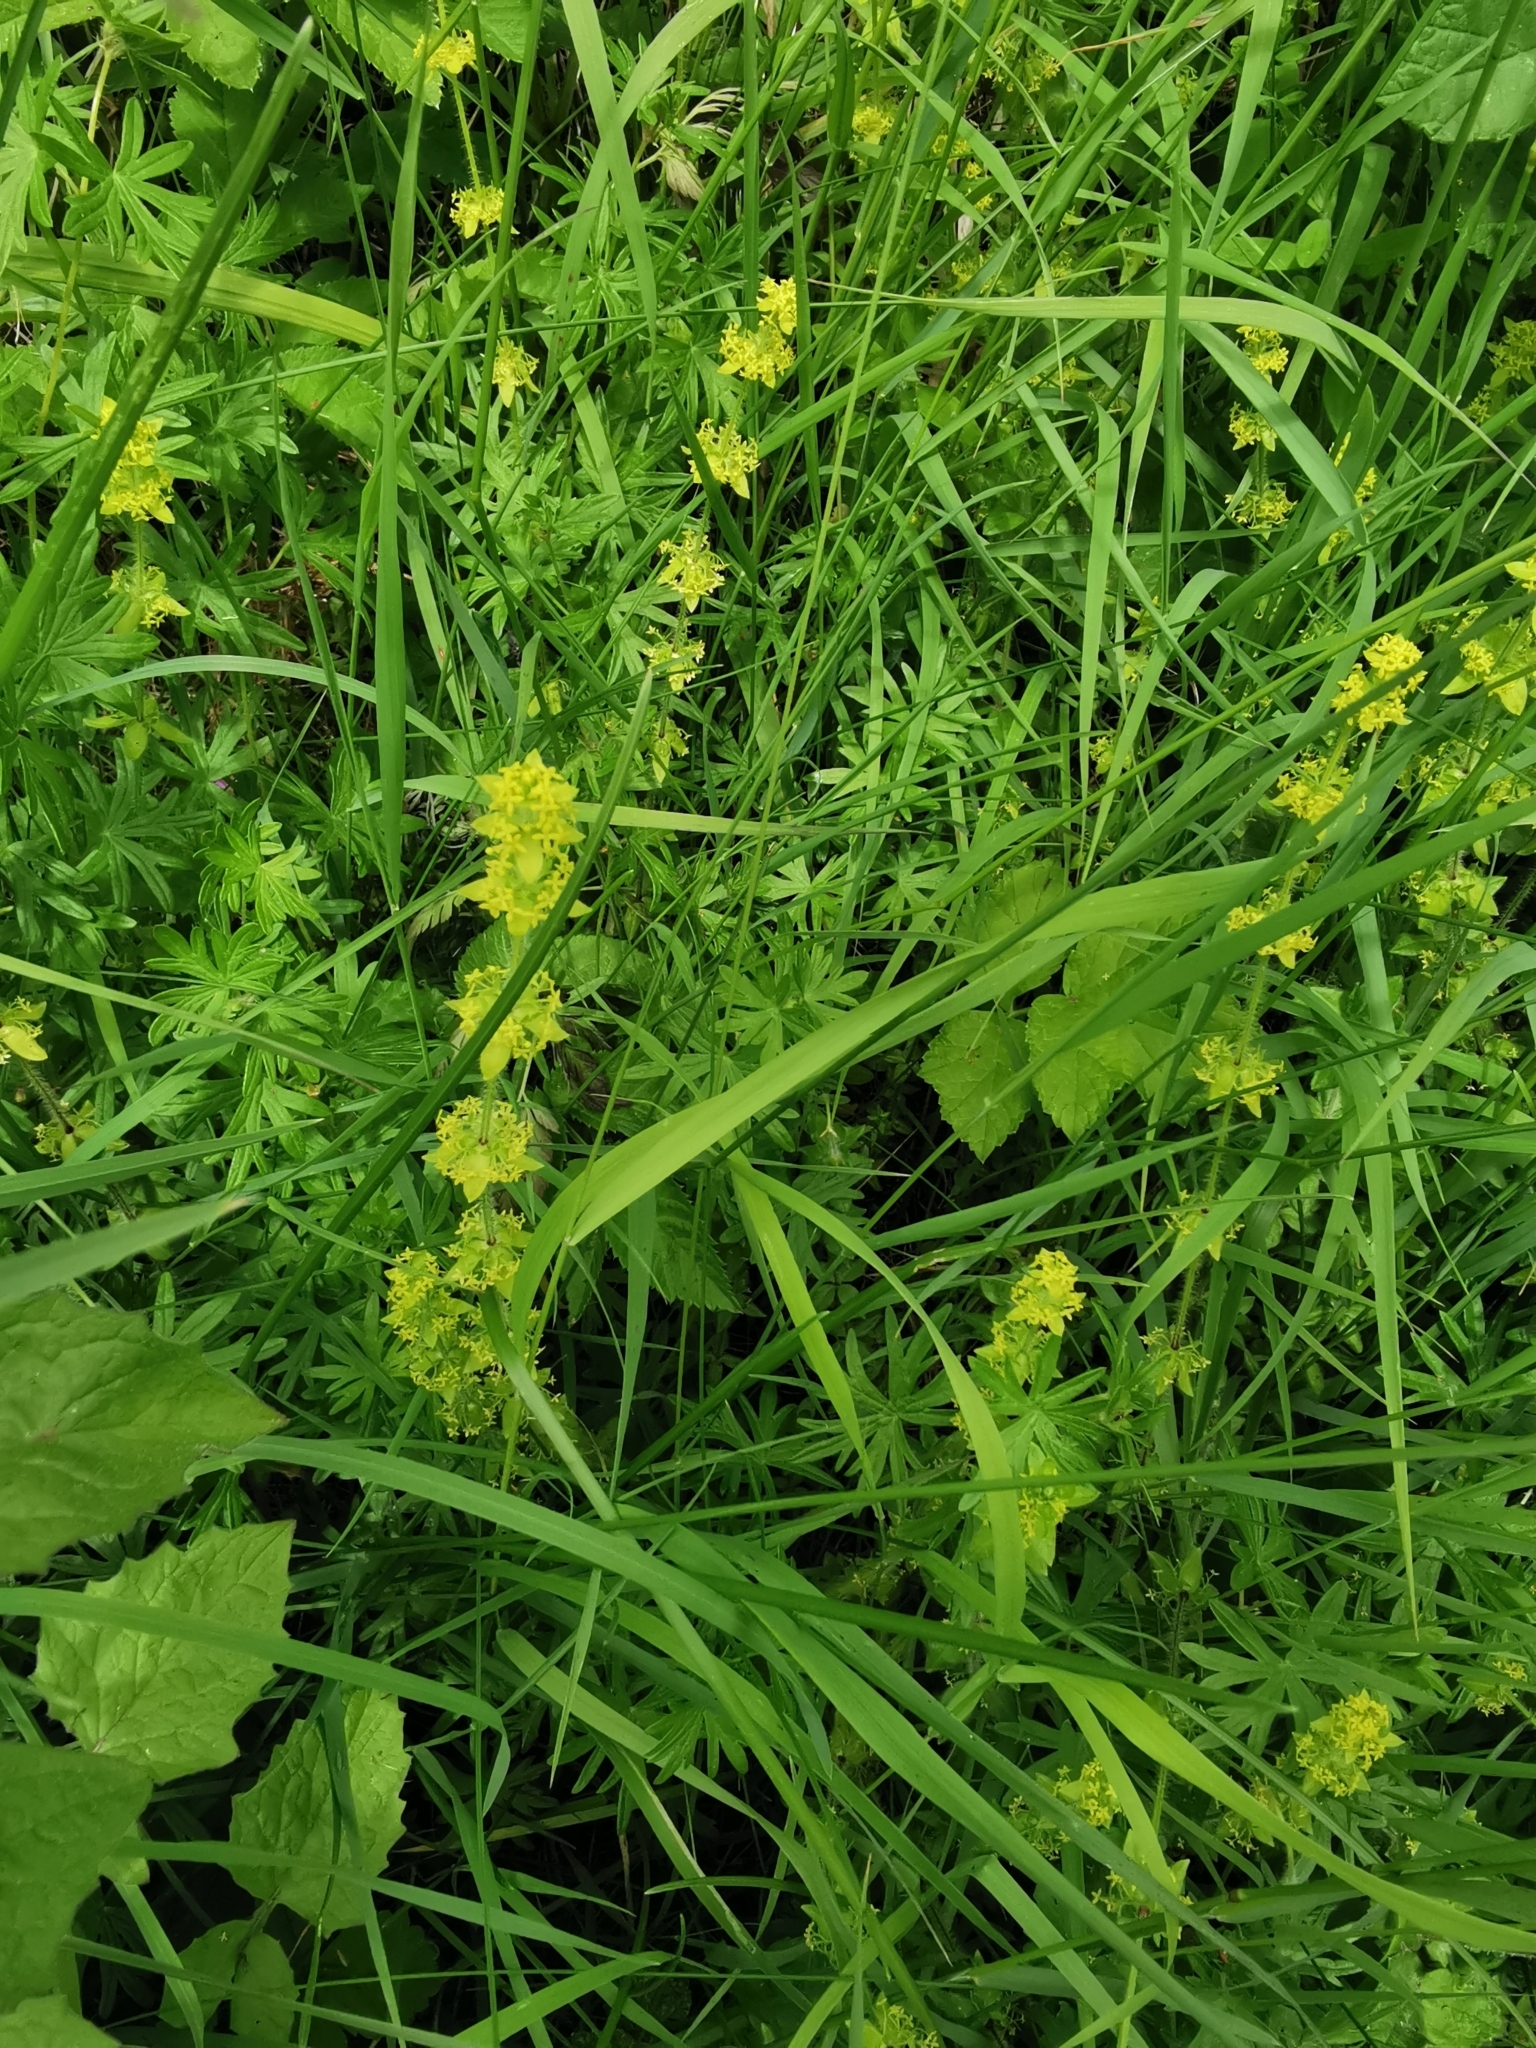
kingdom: Plantae
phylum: Tracheophyta
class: Magnoliopsida
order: Gentianales
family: Rubiaceae
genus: Cruciata
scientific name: Cruciata laevipes
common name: Crosswort
